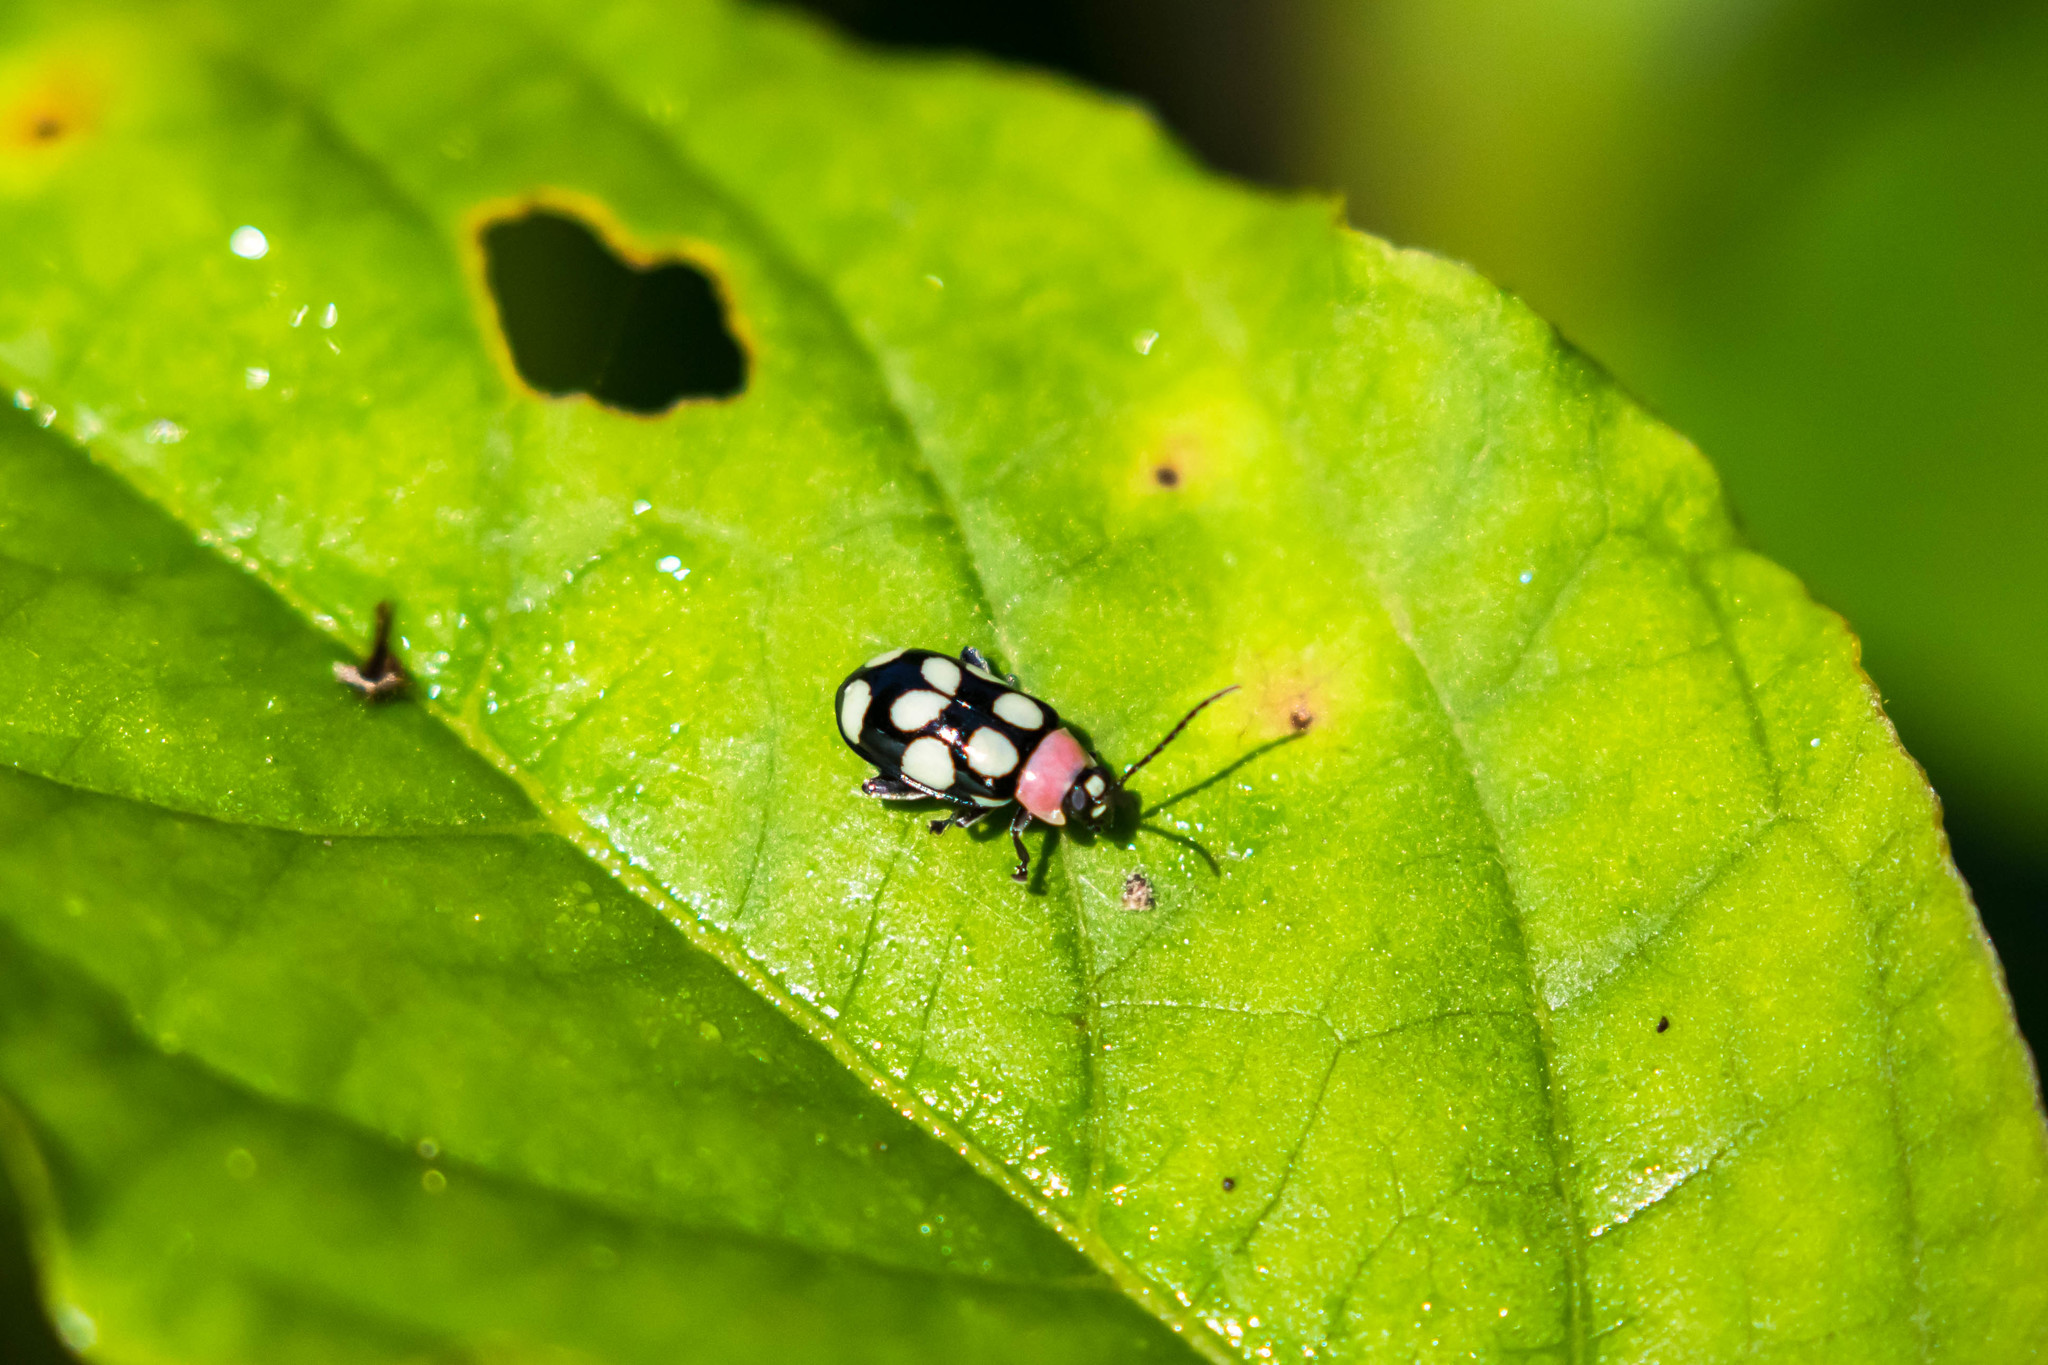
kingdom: Animalia
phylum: Arthropoda
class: Insecta
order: Coleoptera
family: Chrysomelidae
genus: Omophoita
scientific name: Omophoita aequinoctialis
